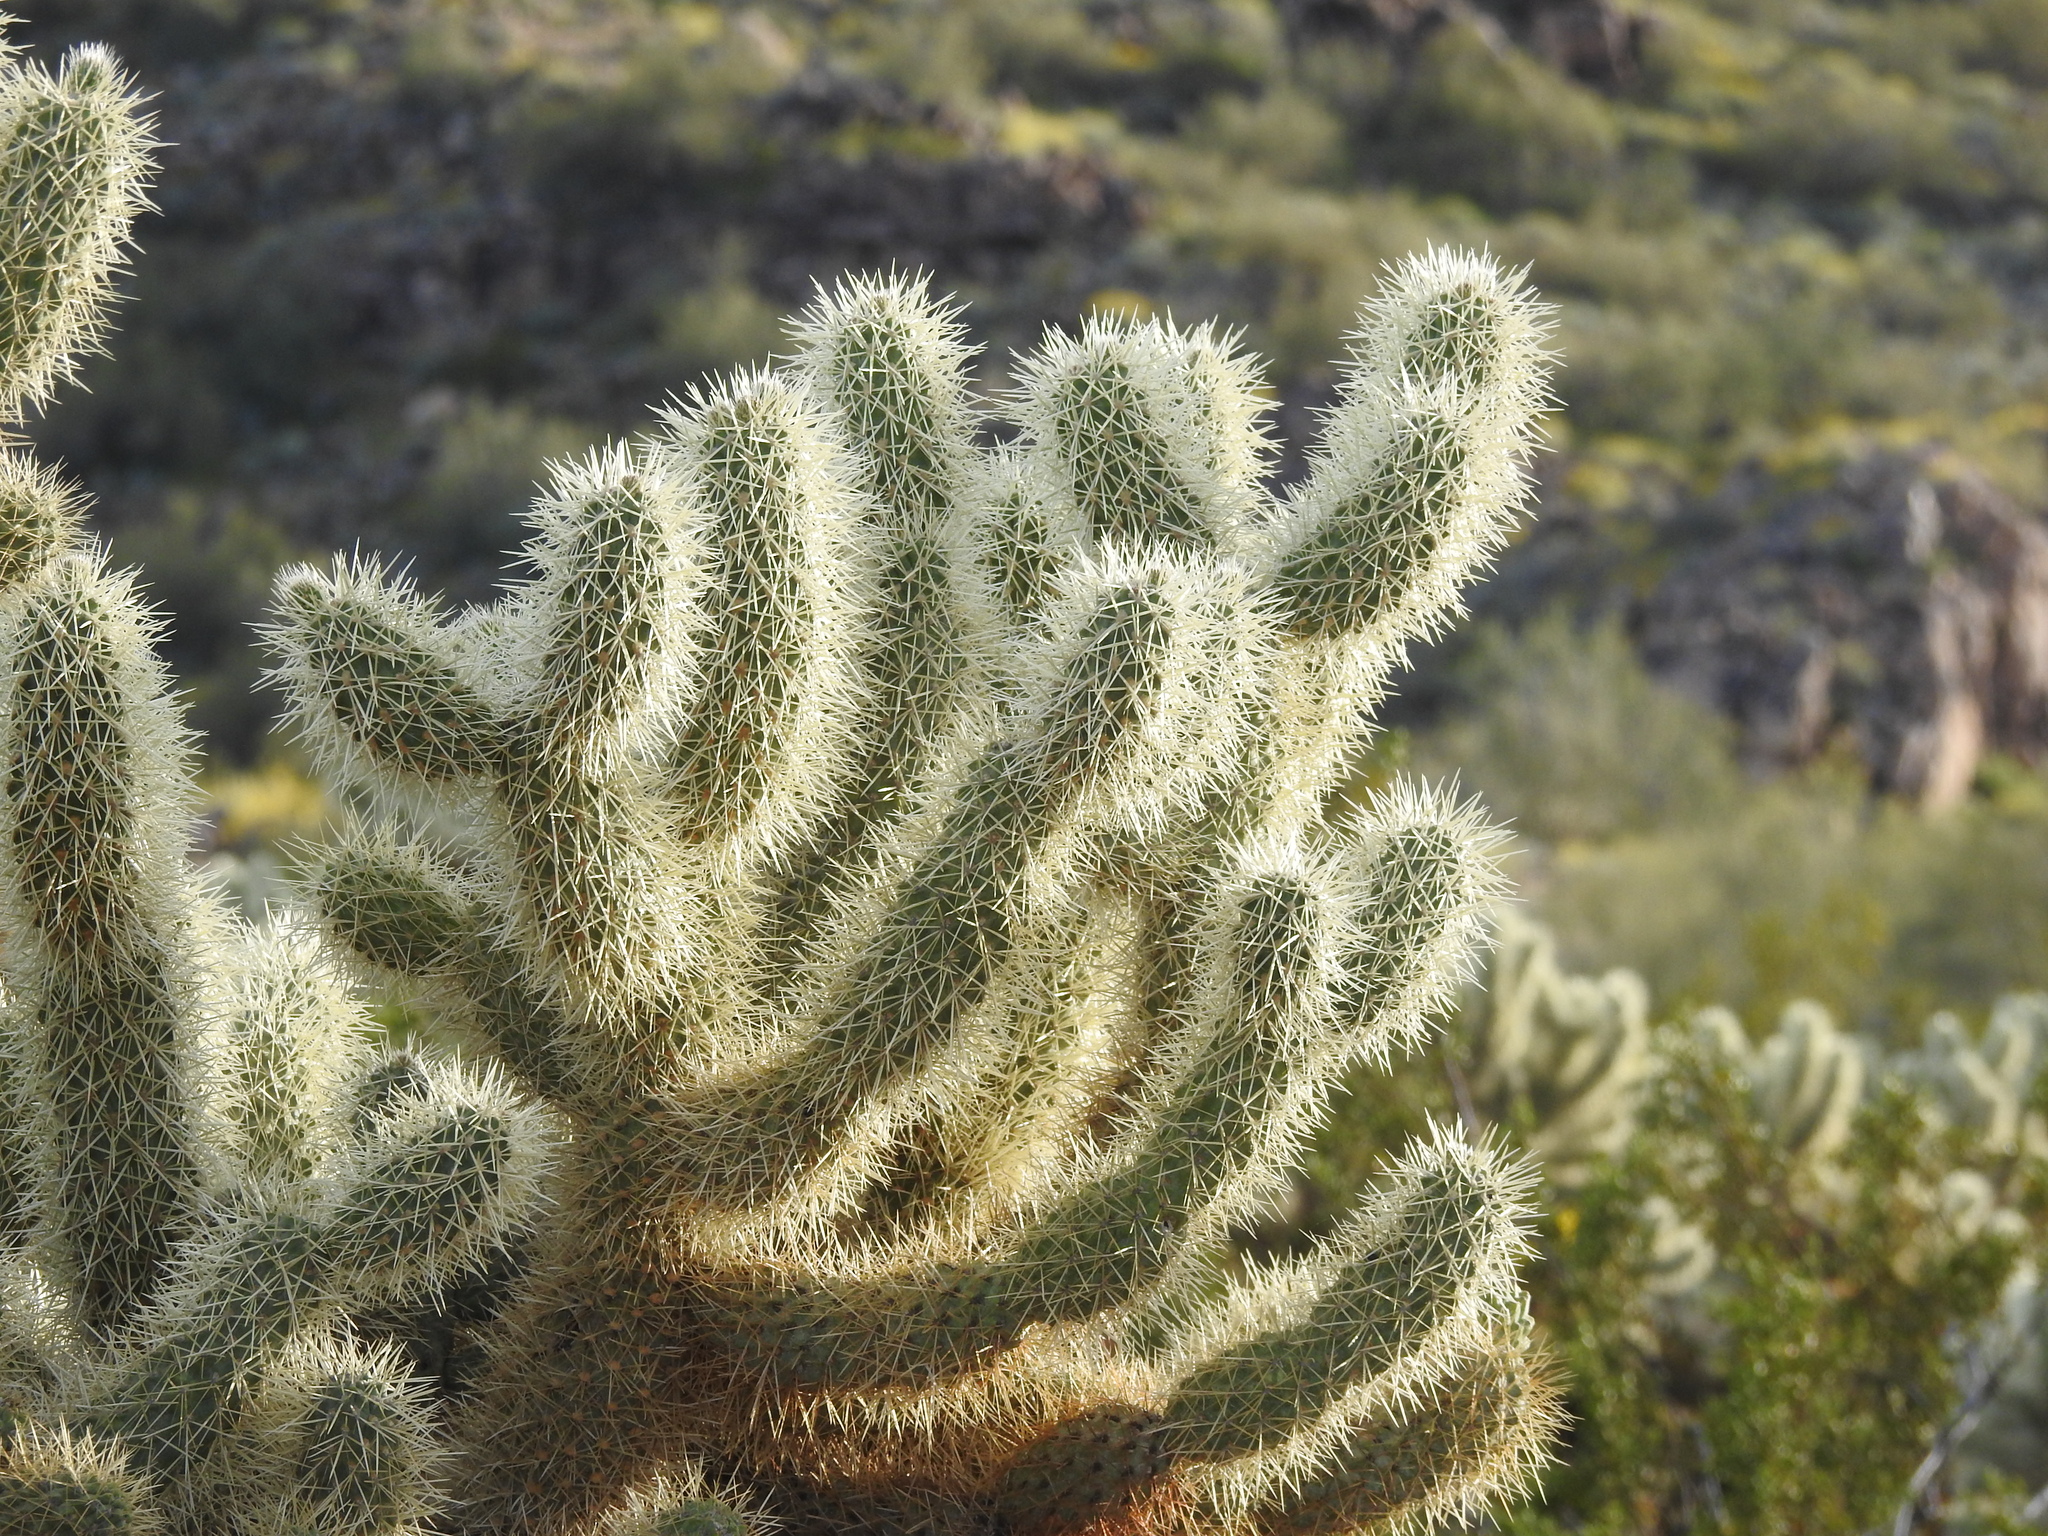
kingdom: Plantae
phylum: Tracheophyta
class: Magnoliopsida
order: Caryophyllales
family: Cactaceae
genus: Cylindropuntia
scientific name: Cylindropuntia fosbergii
